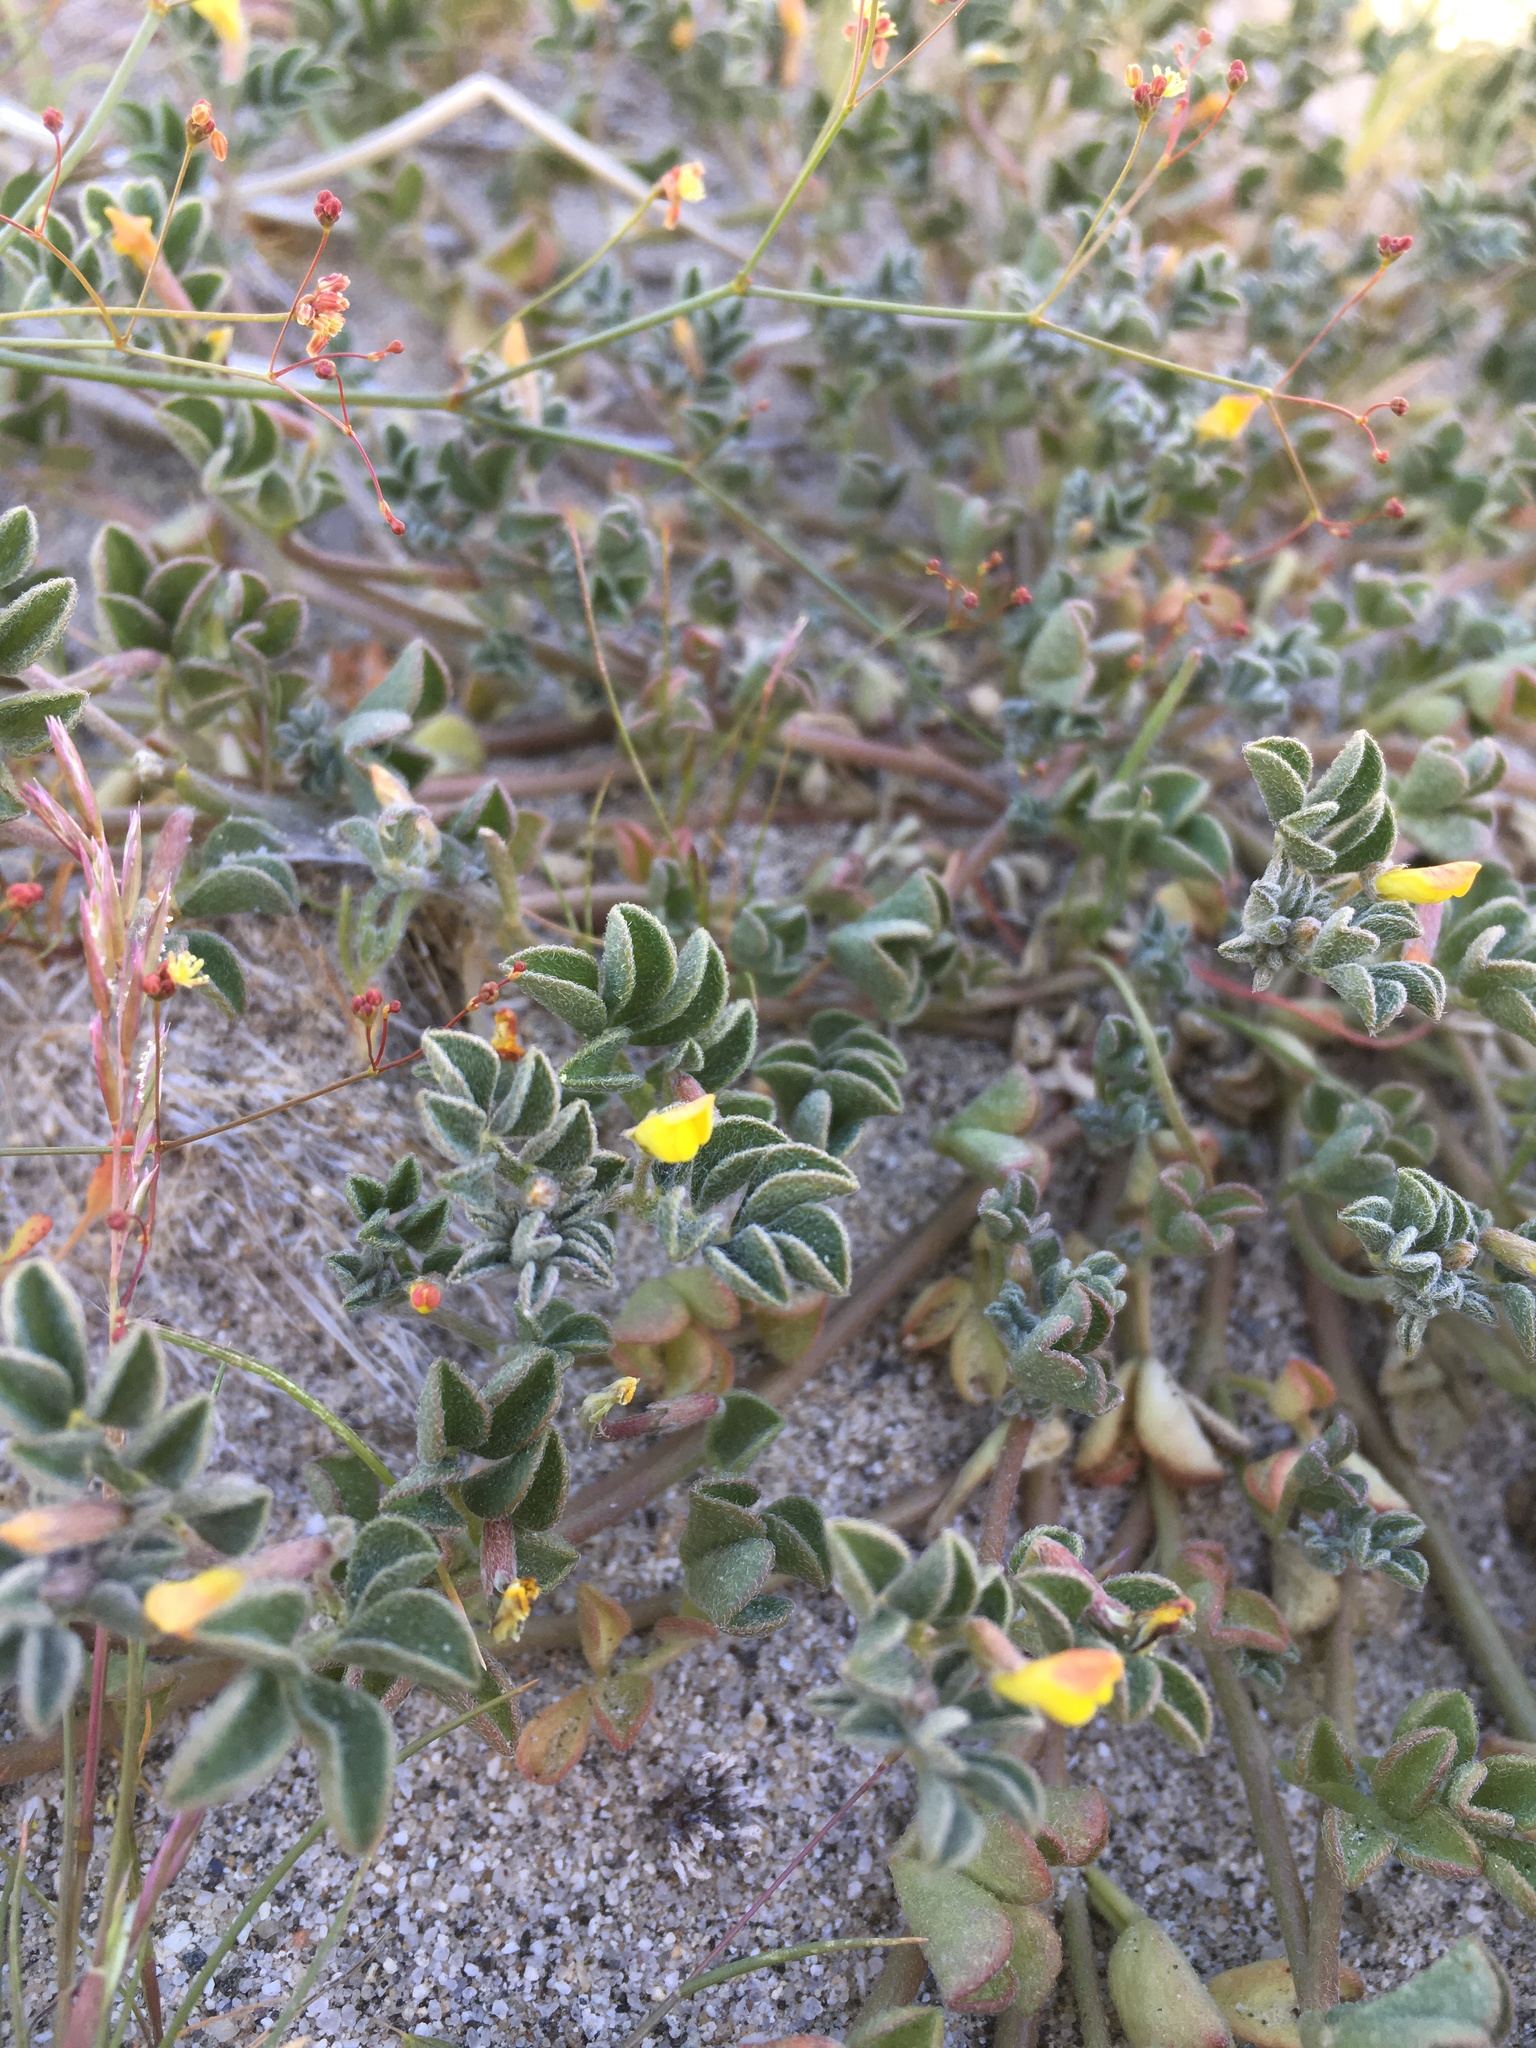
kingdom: Plantae
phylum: Tracheophyta
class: Magnoliopsida
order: Fabales
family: Fabaceae
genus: Acmispon
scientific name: Acmispon strigosus
